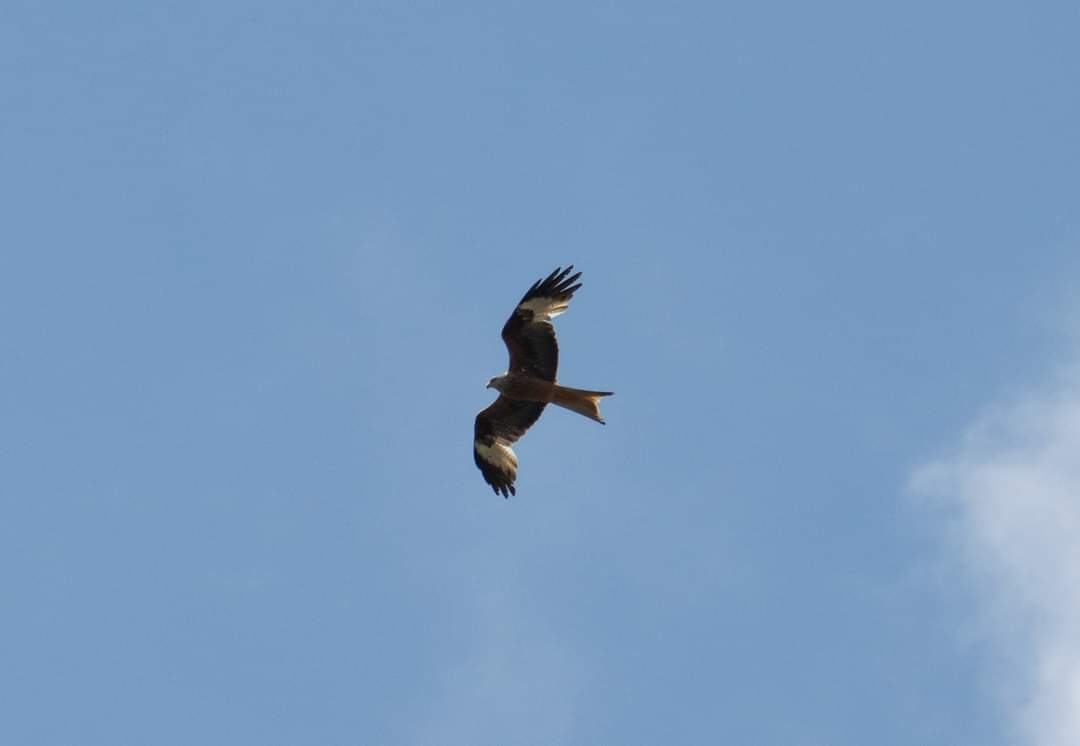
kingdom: Animalia
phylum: Chordata
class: Aves
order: Accipitriformes
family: Accipitridae
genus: Milvus
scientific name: Milvus milvus
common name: Red kite
